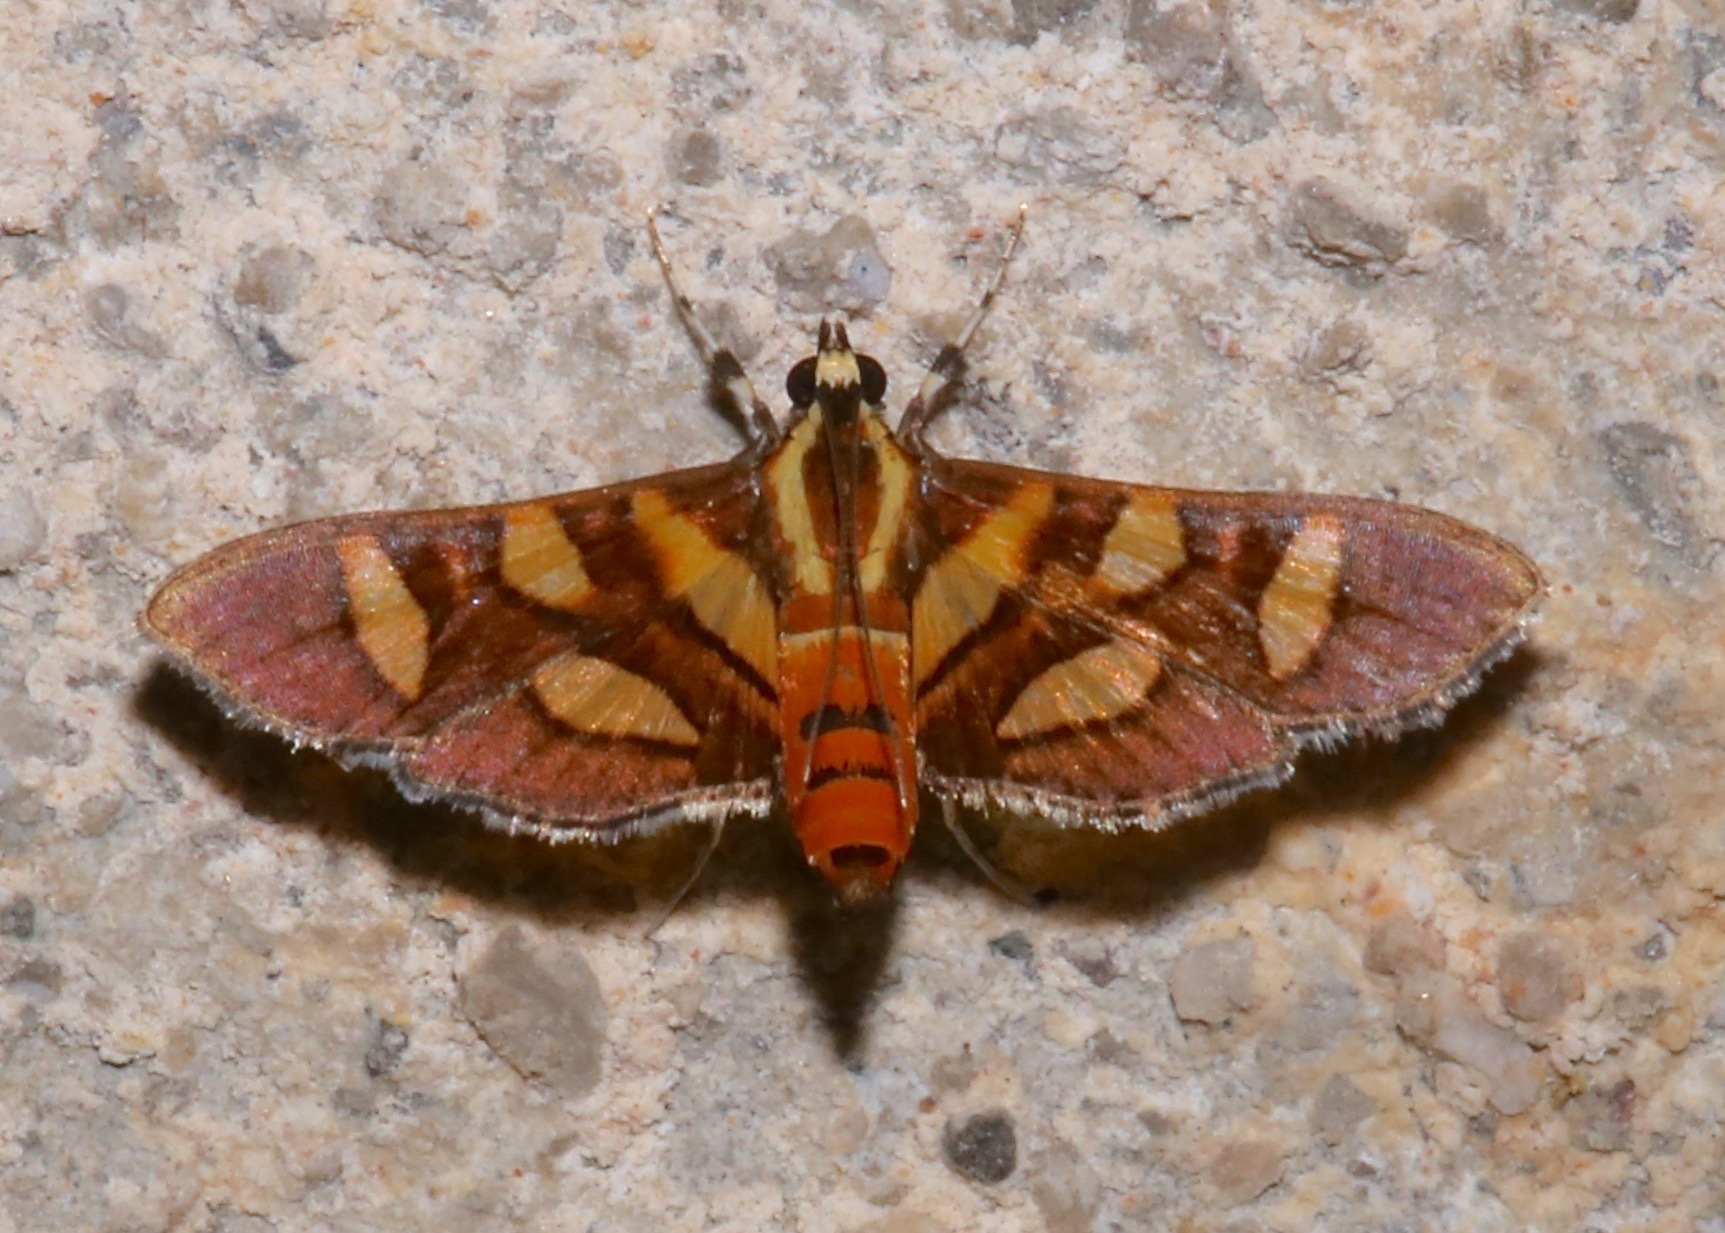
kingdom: Animalia
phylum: Arthropoda
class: Insecta
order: Lepidoptera
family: Crambidae
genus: Syngamia
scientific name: Syngamia florella
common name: Orange-spotted flower moth
